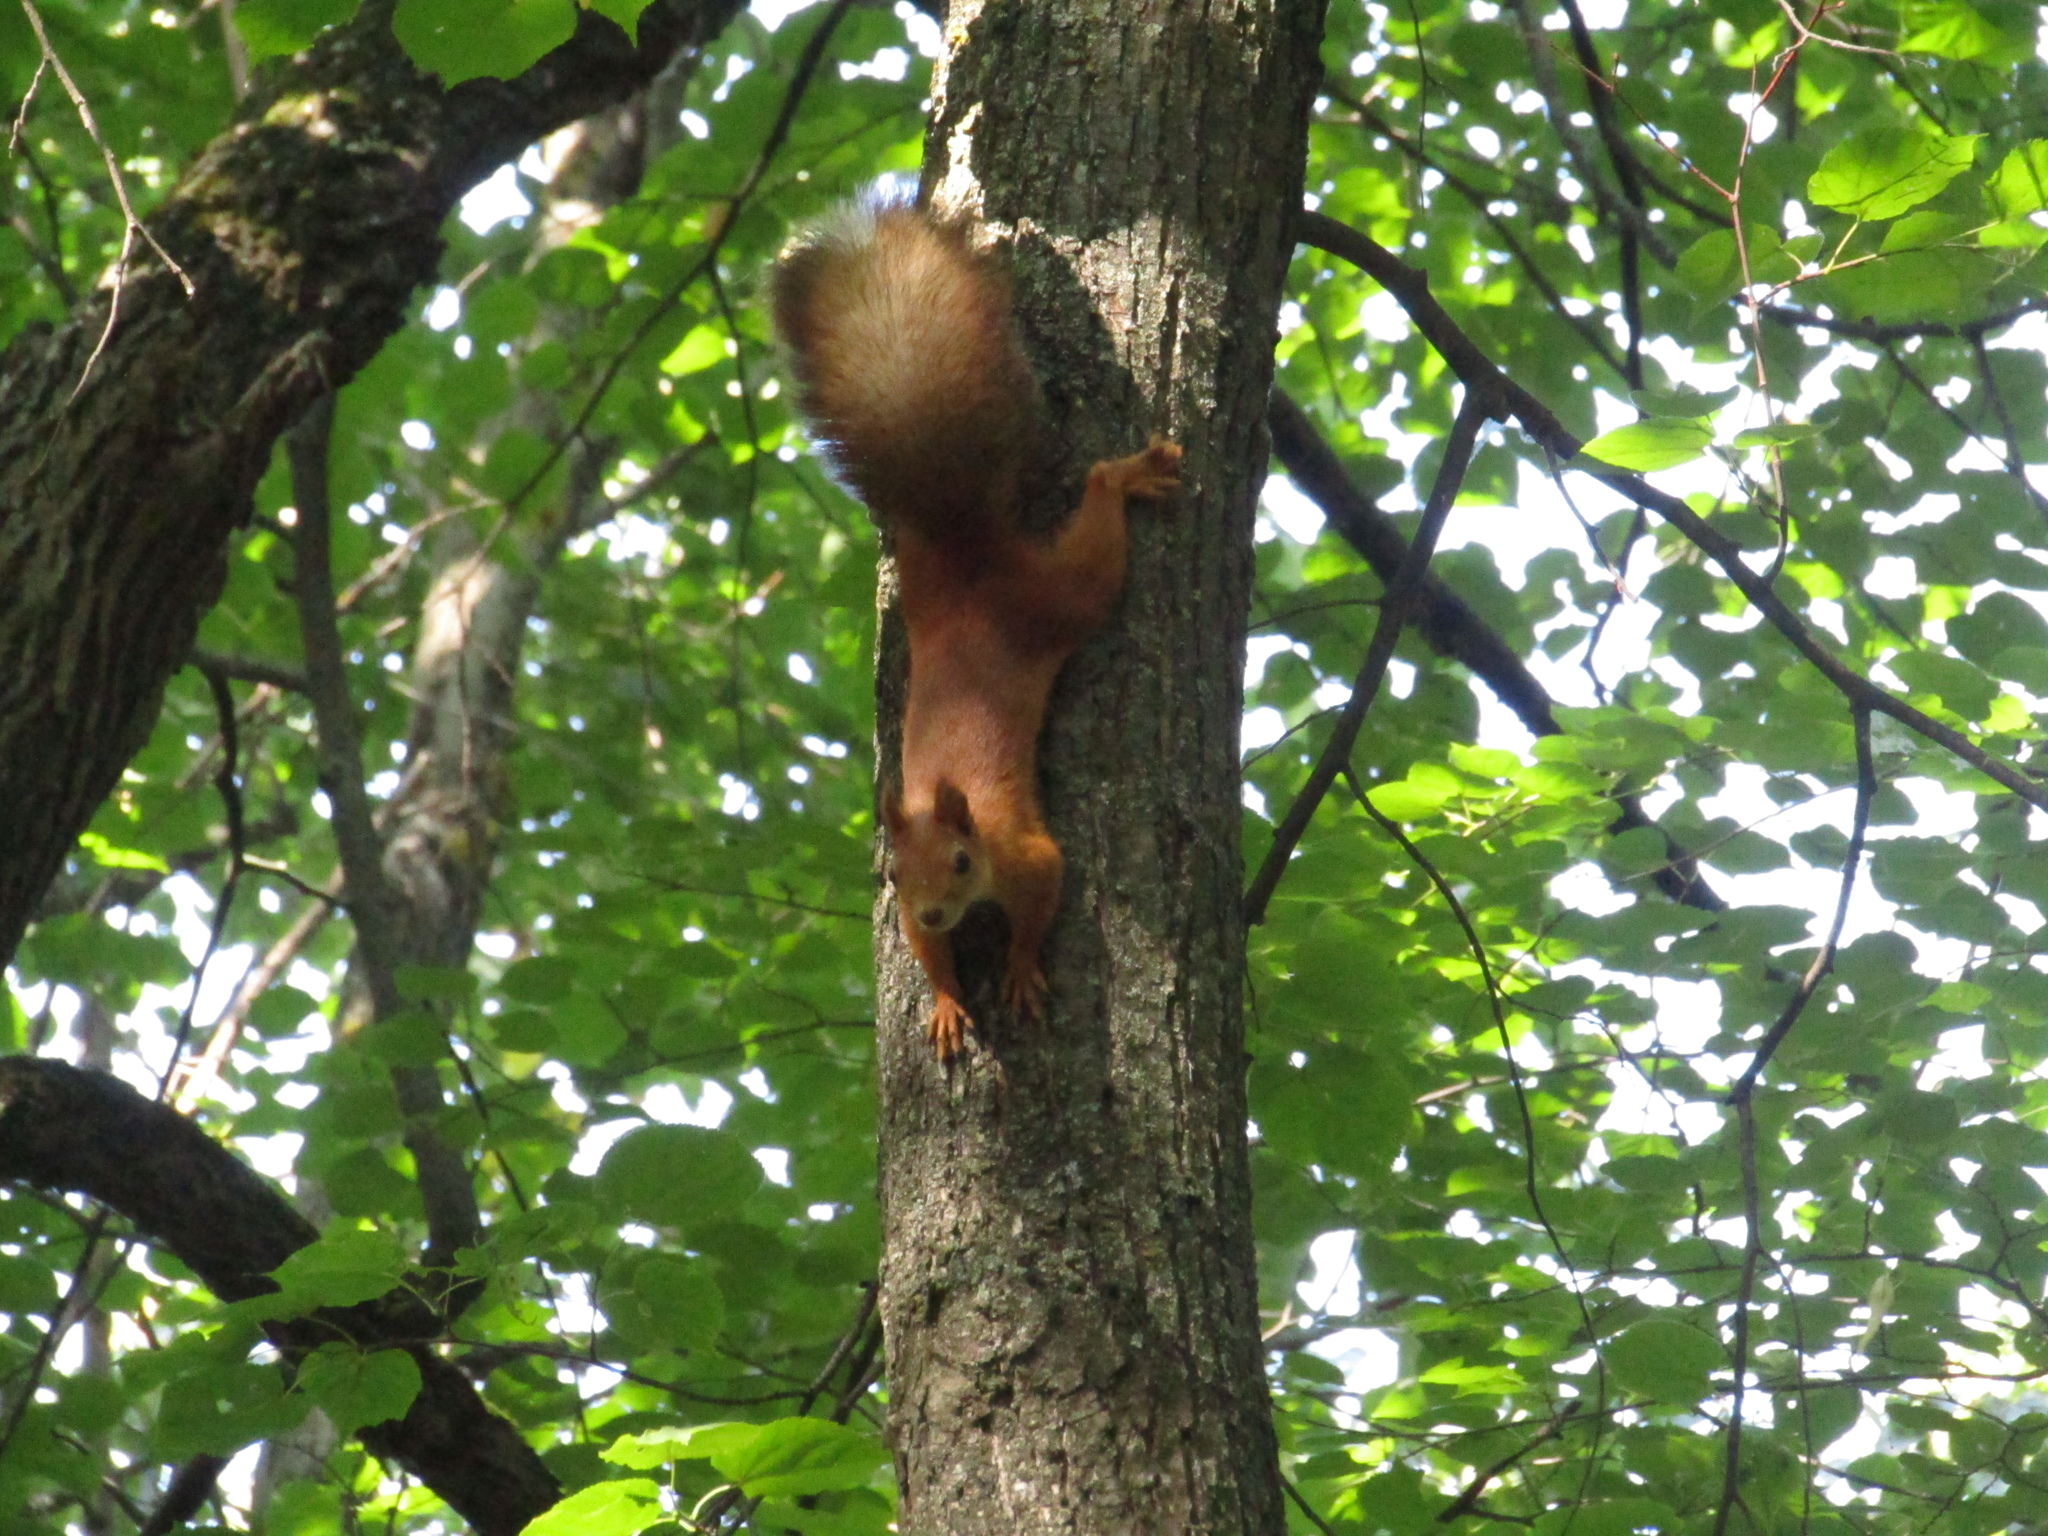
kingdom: Animalia
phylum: Chordata
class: Mammalia
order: Rodentia
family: Sciuridae
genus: Sciurus
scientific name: Sciurus vulgaris
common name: Eurasian red squirrel
